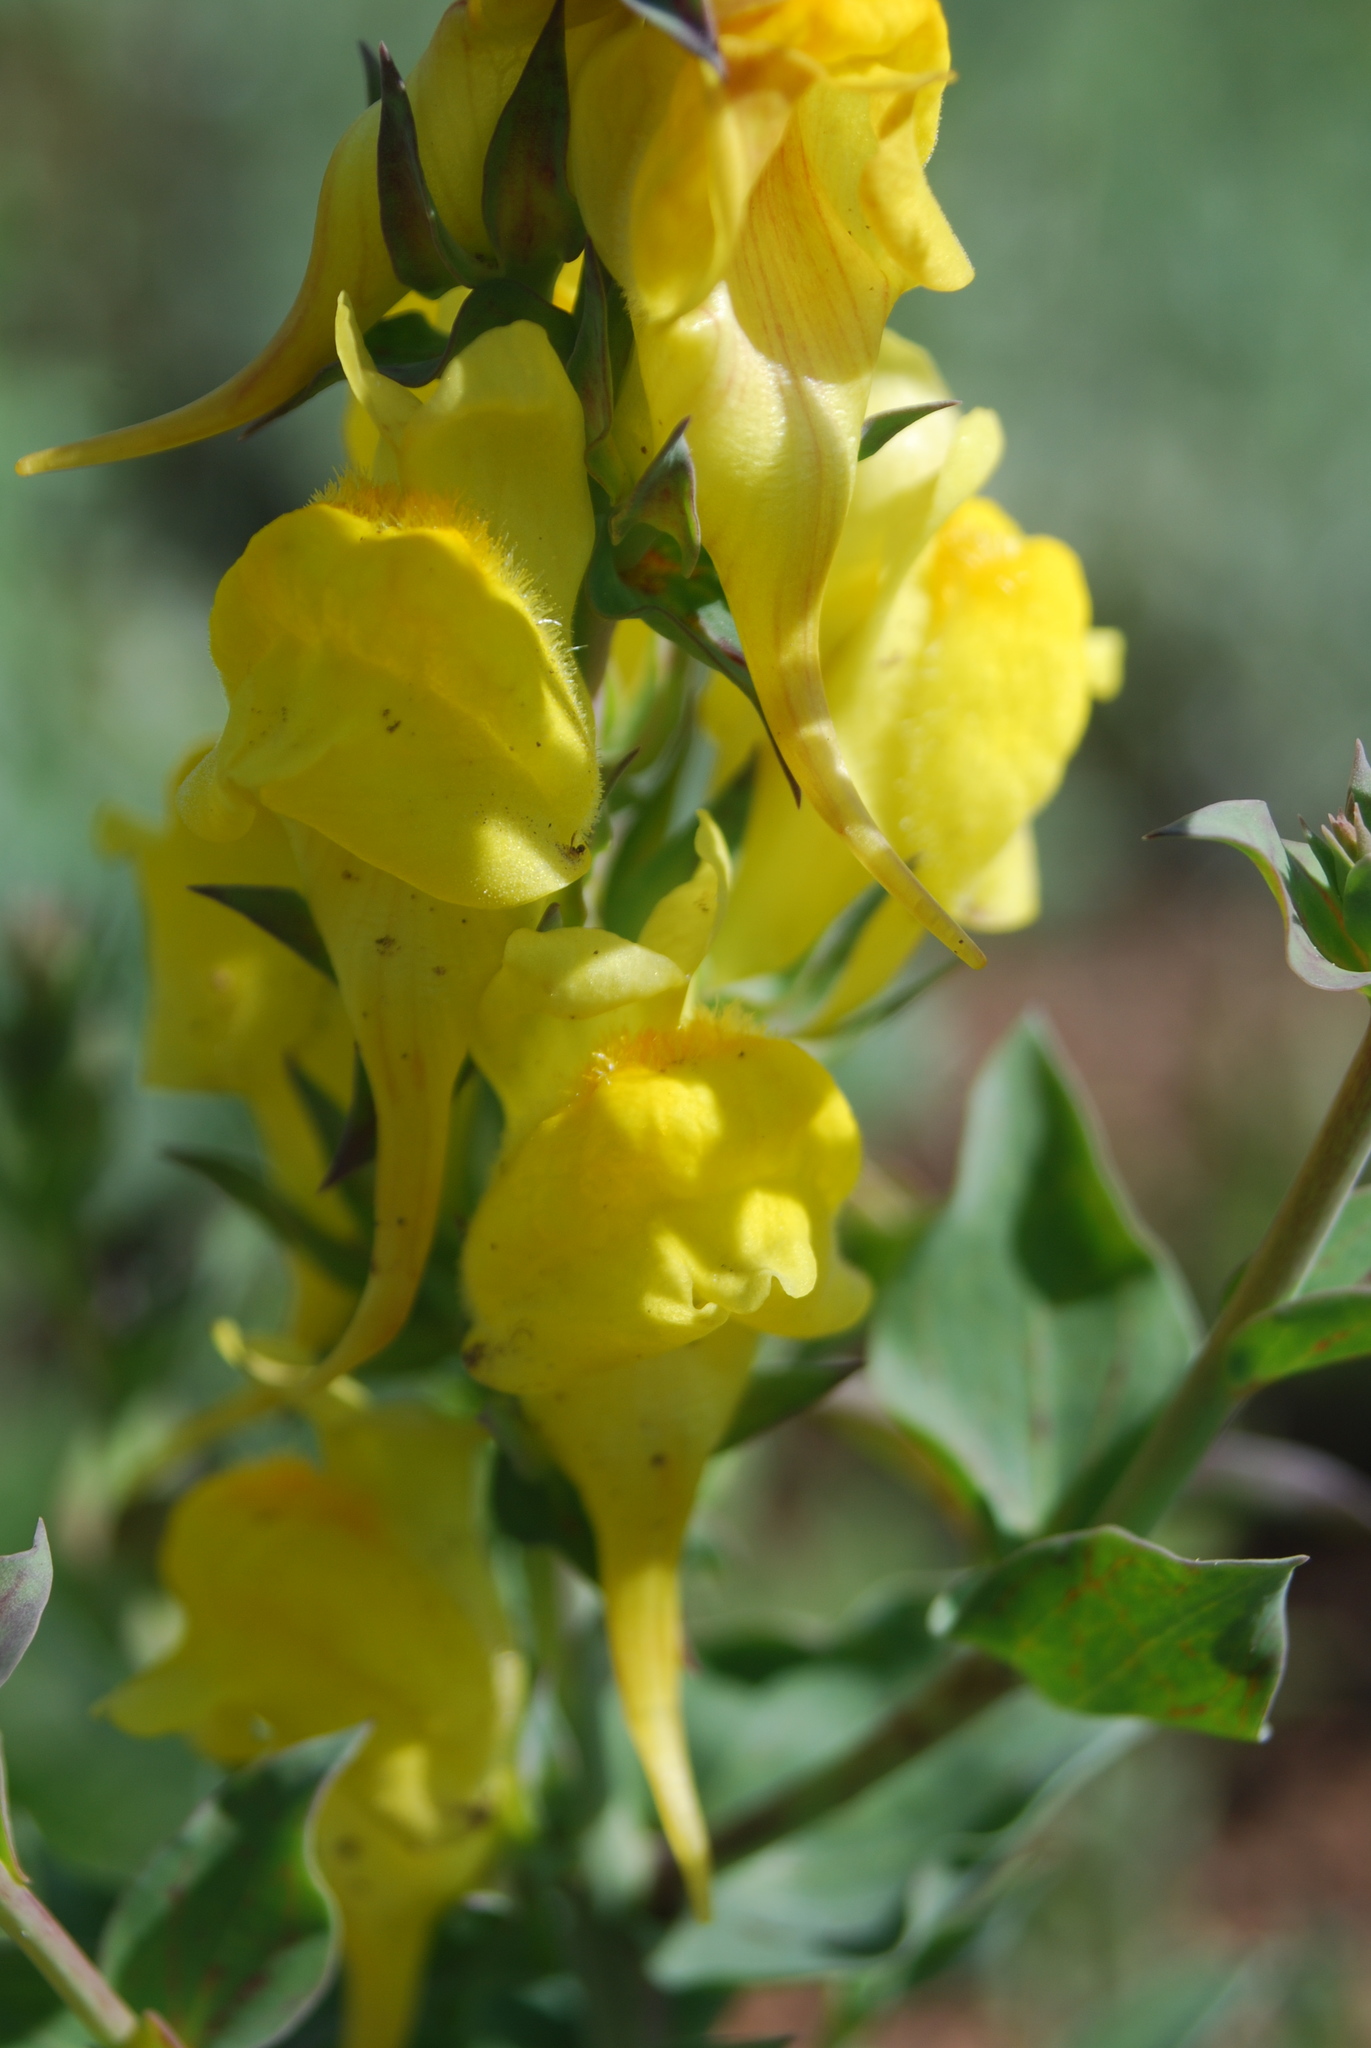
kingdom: Plantae
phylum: Tracheophyta
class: Magnoliopsida
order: Lamiales
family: Plantaginaceae
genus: Linaria
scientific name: Linaria dalmatica
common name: Dalmatian toadflax
